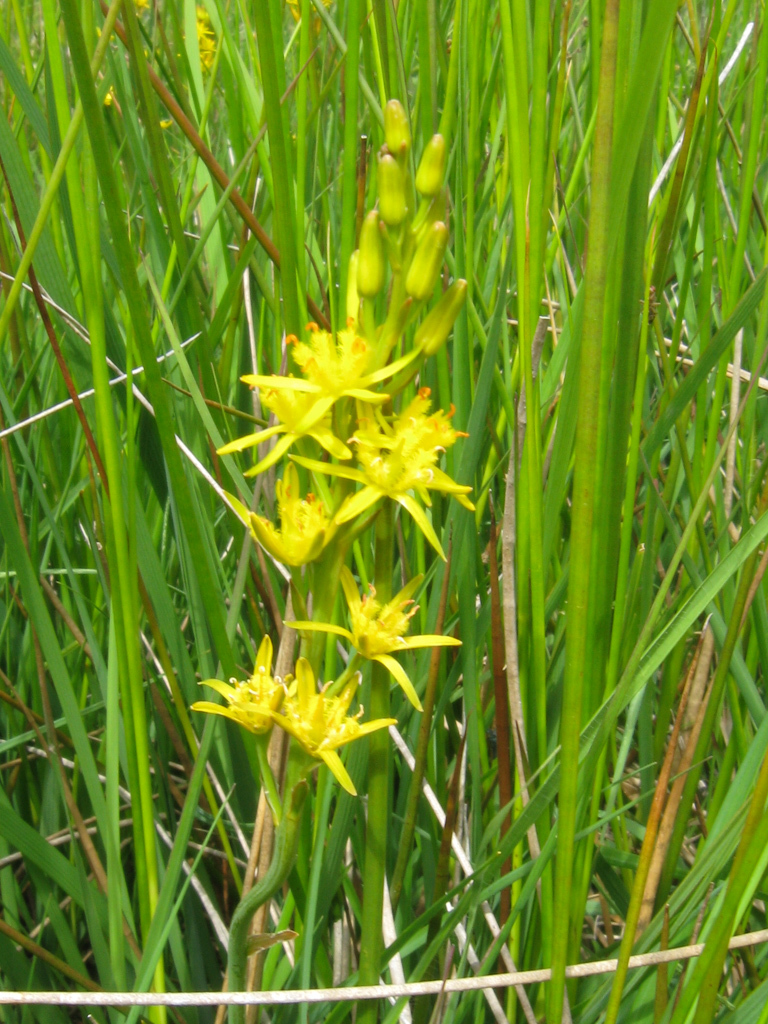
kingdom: Plantae
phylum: Tracheophyta
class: Liliopsida
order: Dioscoreales
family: Nartheciaceae
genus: Narthecium
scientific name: Narthecium ossifragum
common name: Bog asphodel
